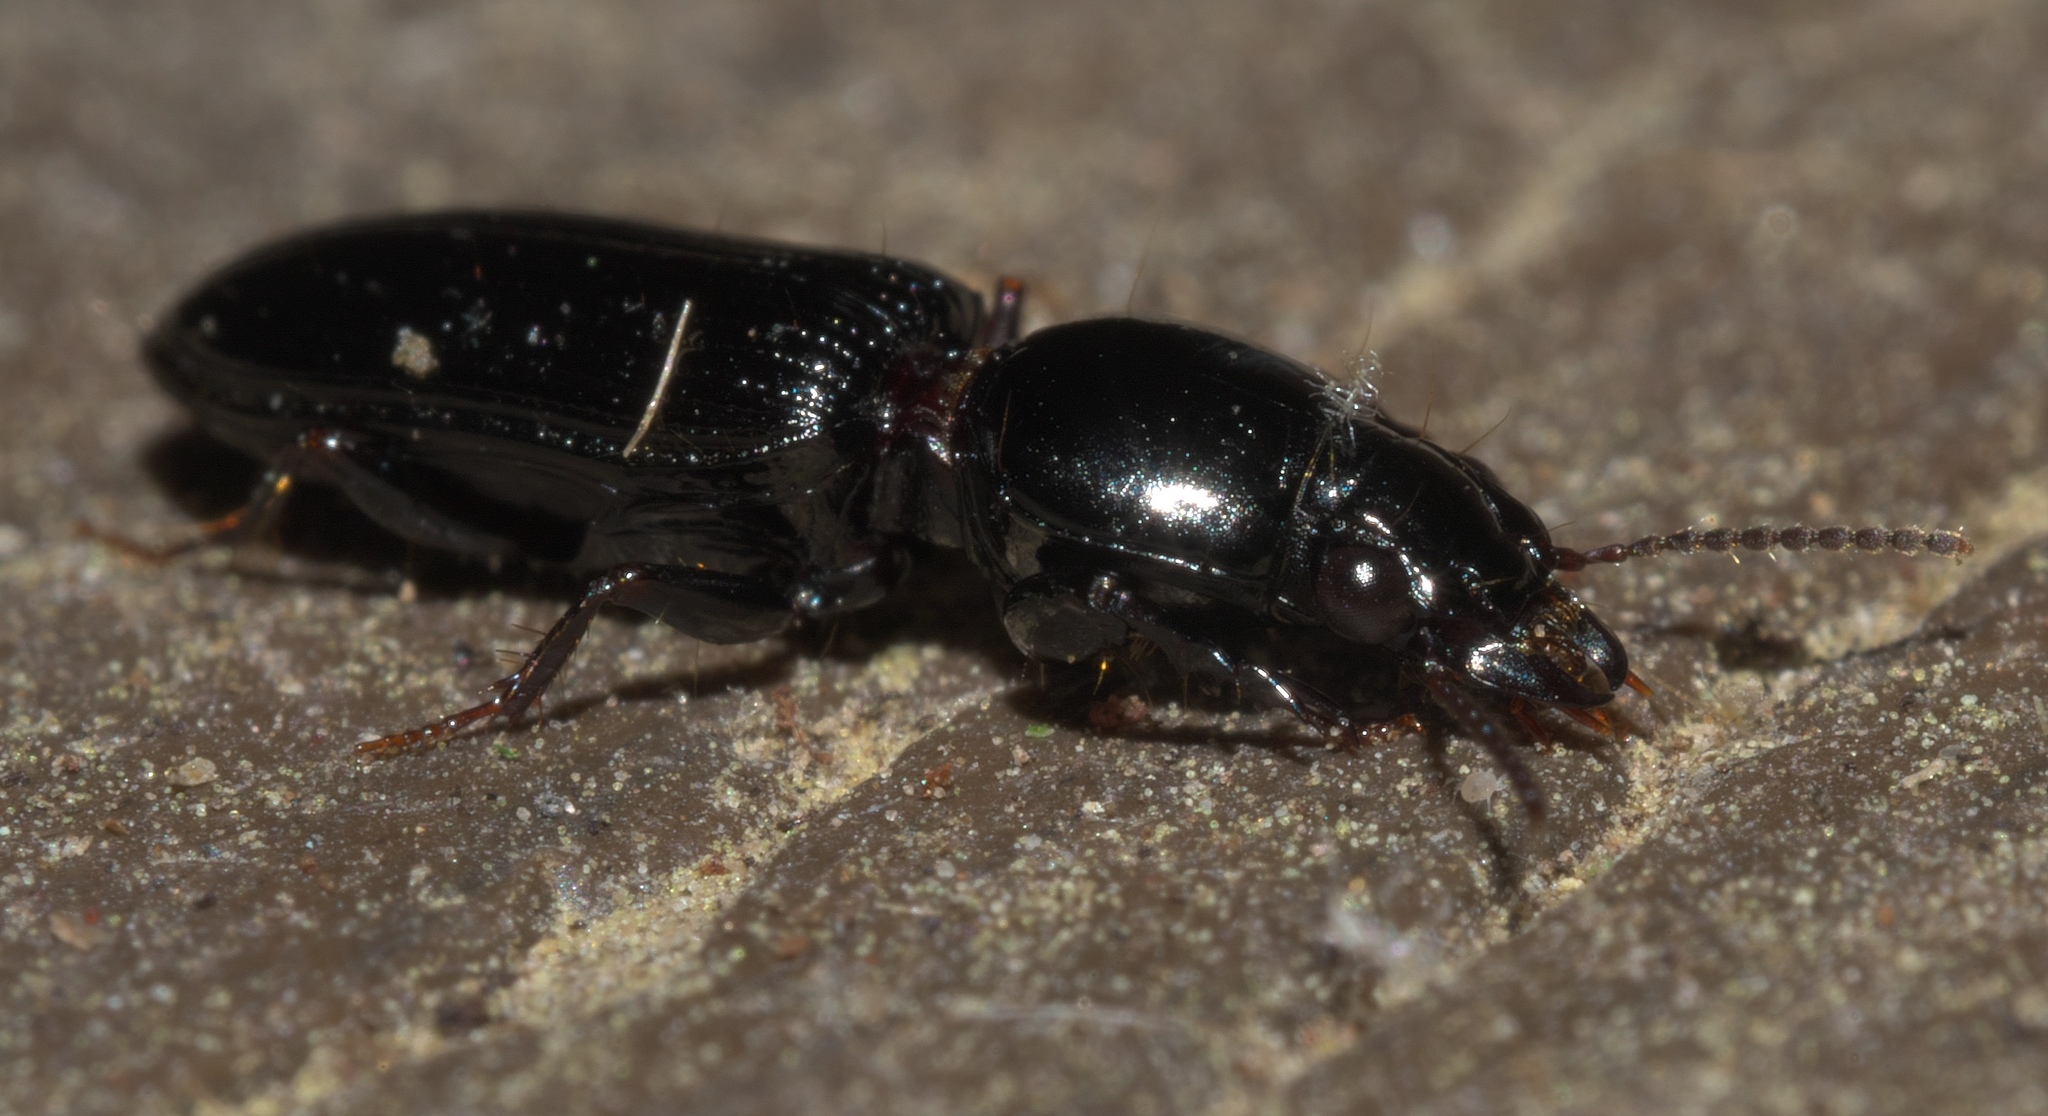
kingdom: Animalia
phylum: Arthropoda
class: Insecta
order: Coleoptera
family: Carabidae
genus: Semiclivina
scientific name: Semiclivina dentipes
